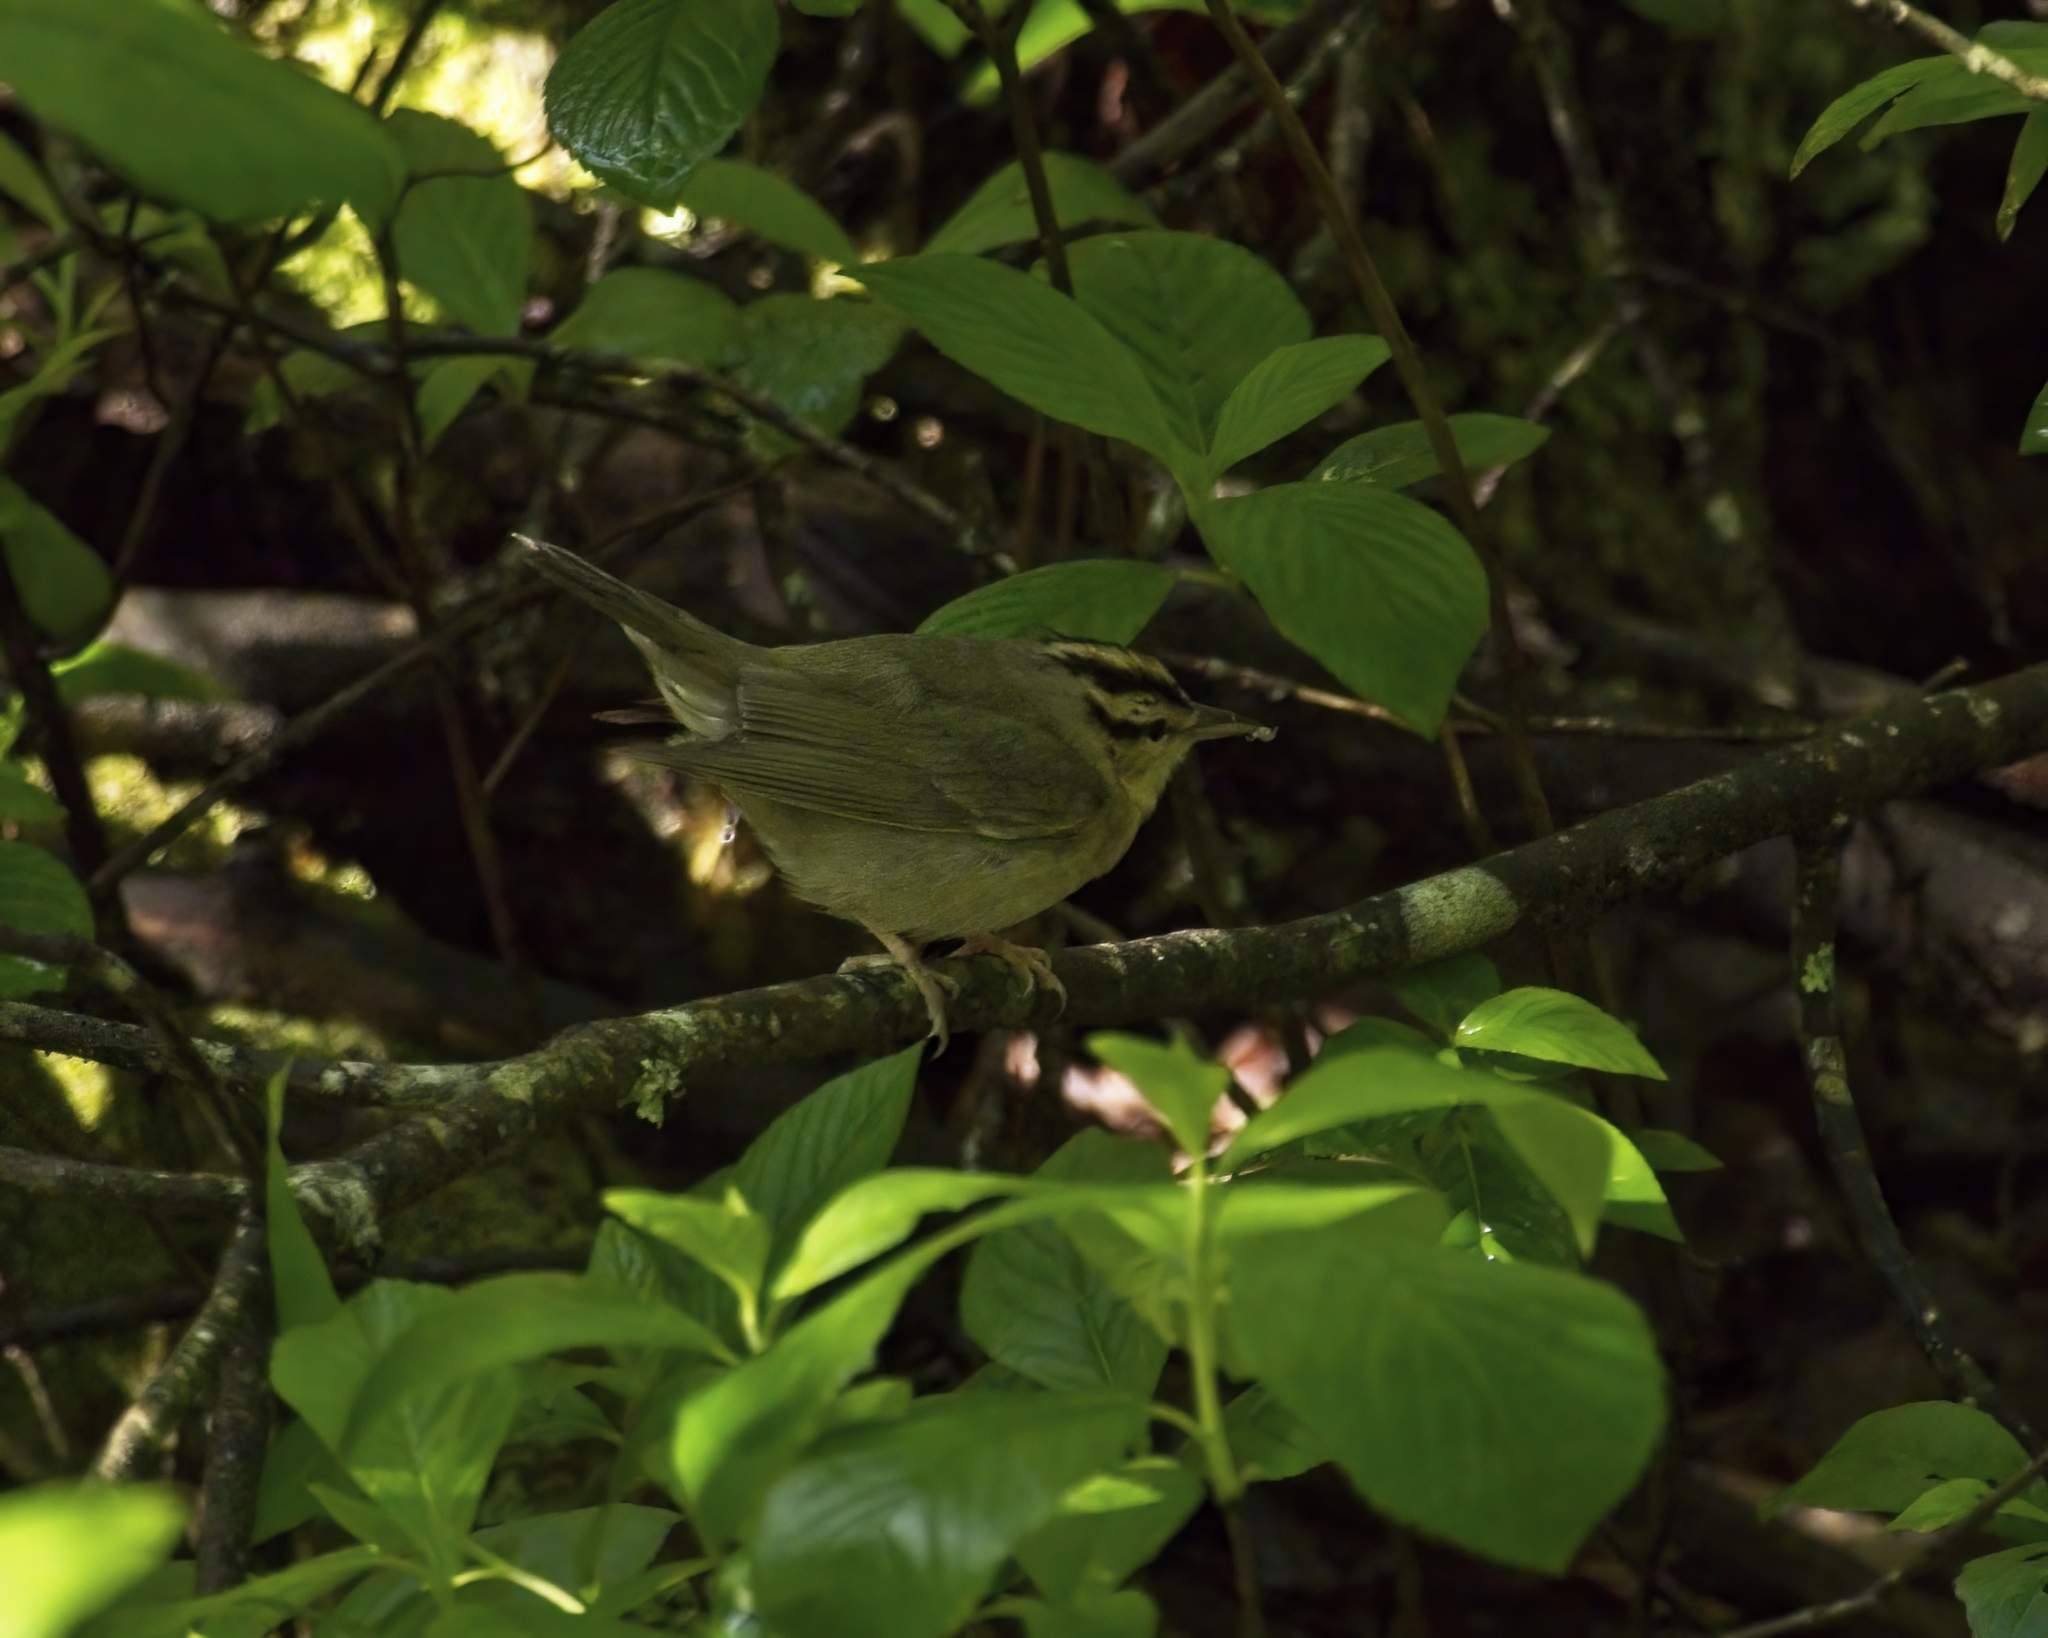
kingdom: Animalia
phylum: Chordata
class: Aves
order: Passeriformes
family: Parulidae
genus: Helmitheros
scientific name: Helmitheros vermivorum
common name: Worm-eating warbler
